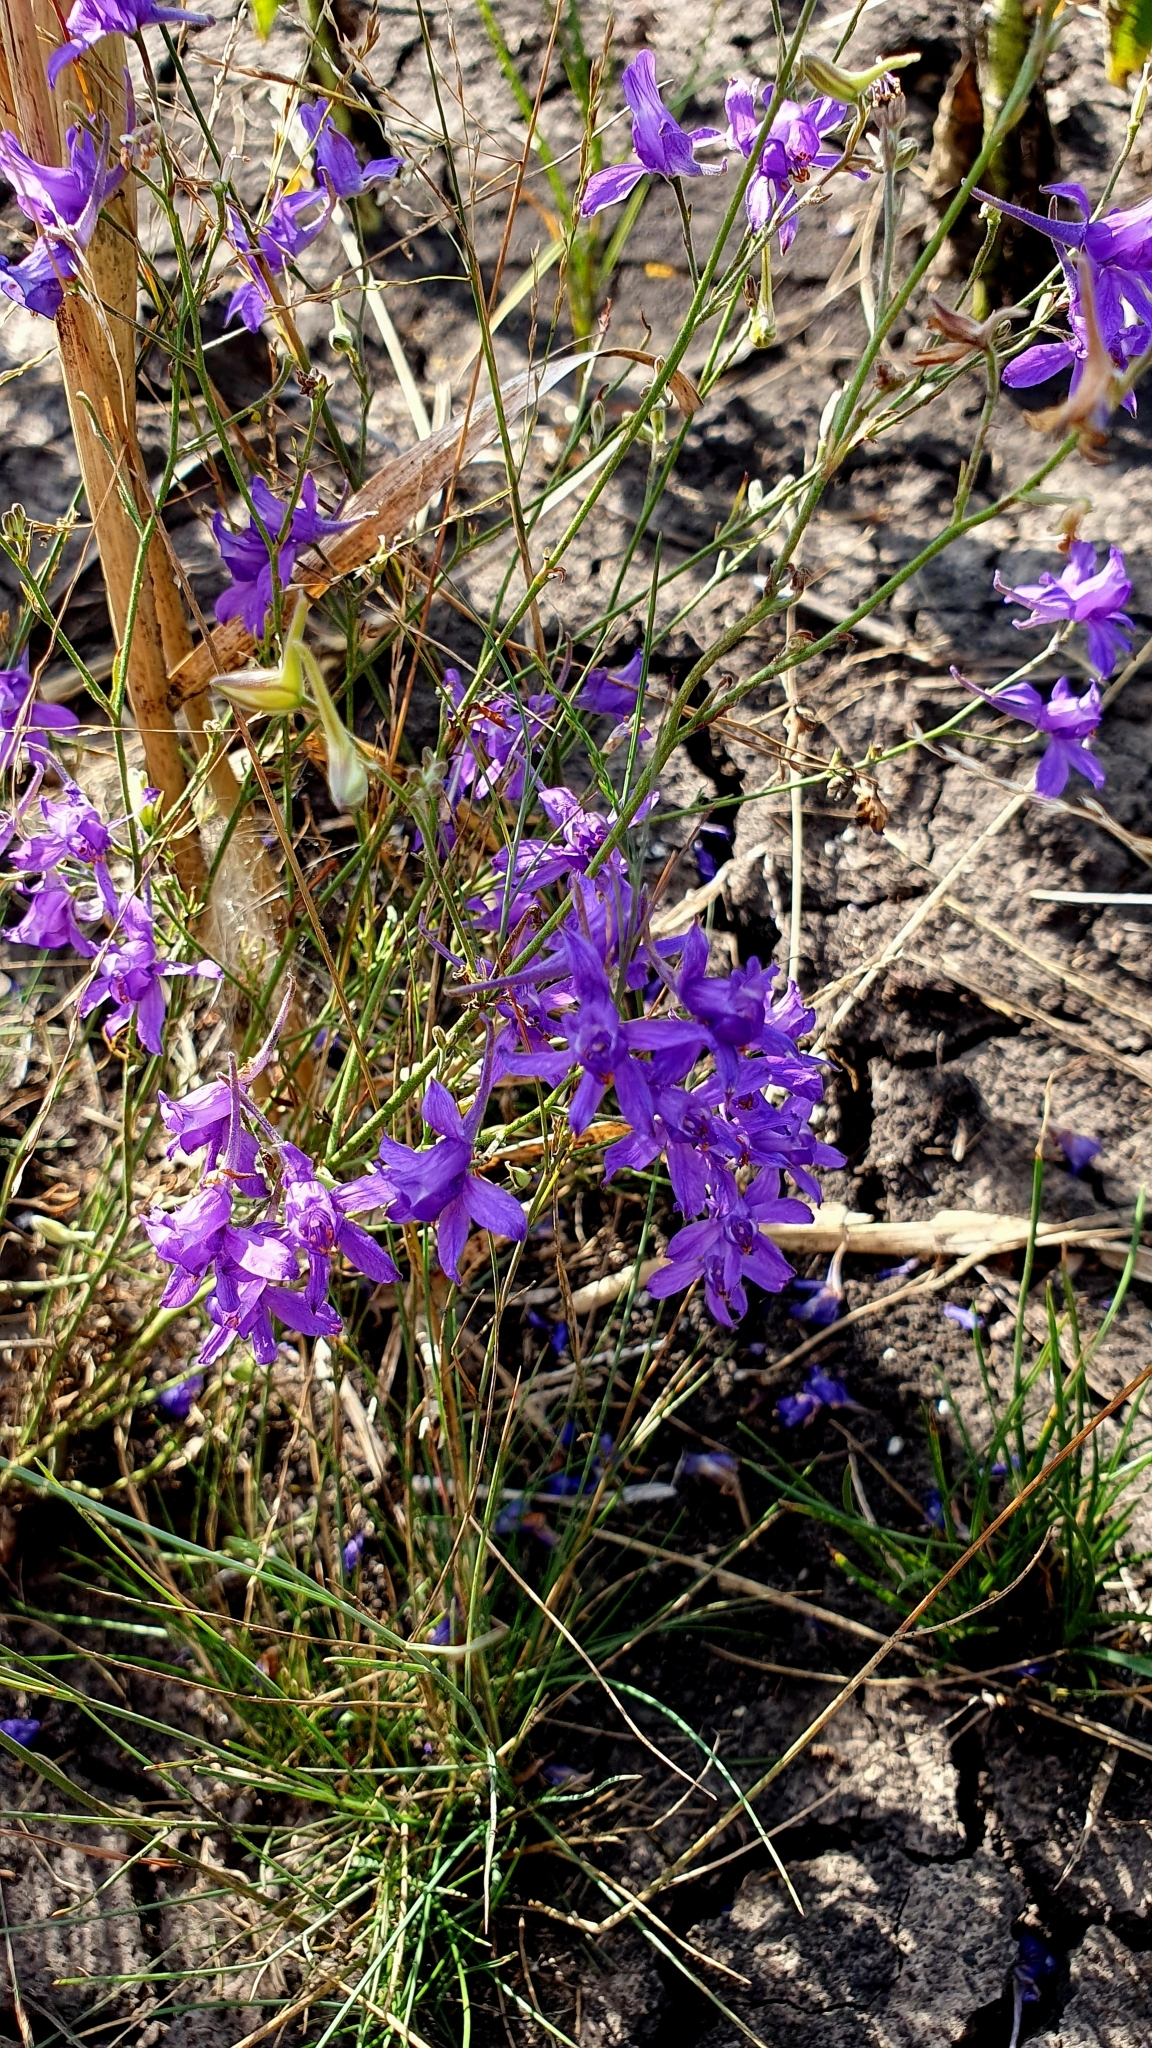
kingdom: Plantae
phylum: Tracheophyta
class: Magnoliopsida
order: Ranunculales
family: Ranunculaceae
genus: Delphinium
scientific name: Delphinium consolida
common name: Branching larkspur
